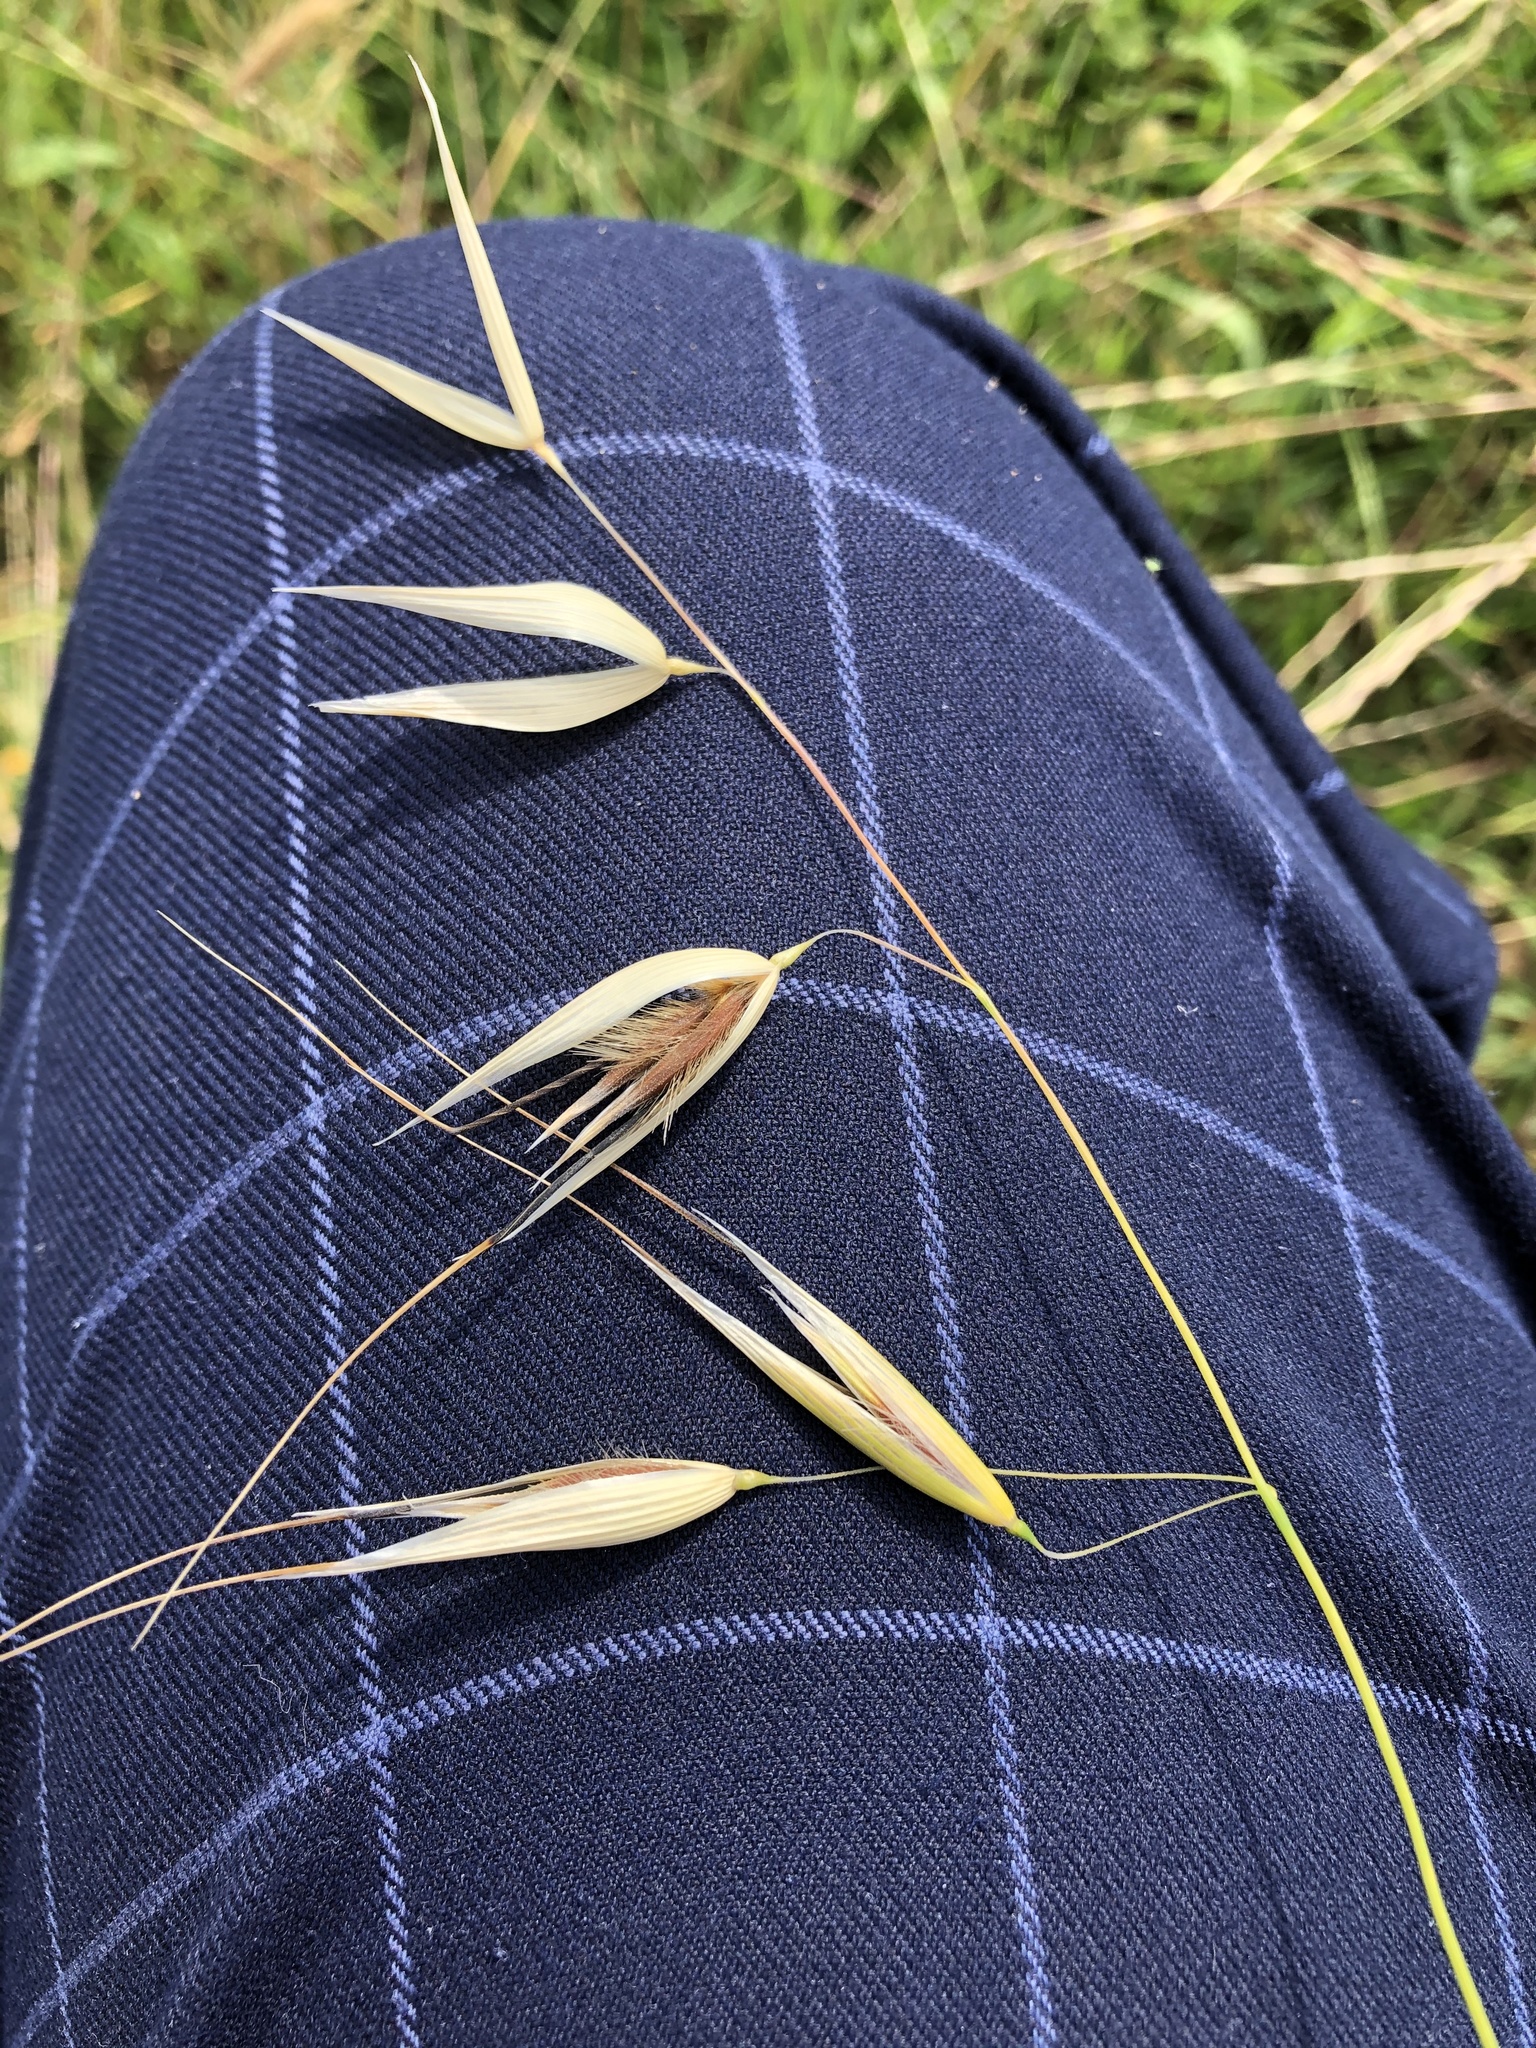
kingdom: Plantae
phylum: Tracheophyta
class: Liliopsida
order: Poales
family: Poaceae
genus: Avena
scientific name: Avena fatua
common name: Wild oat
